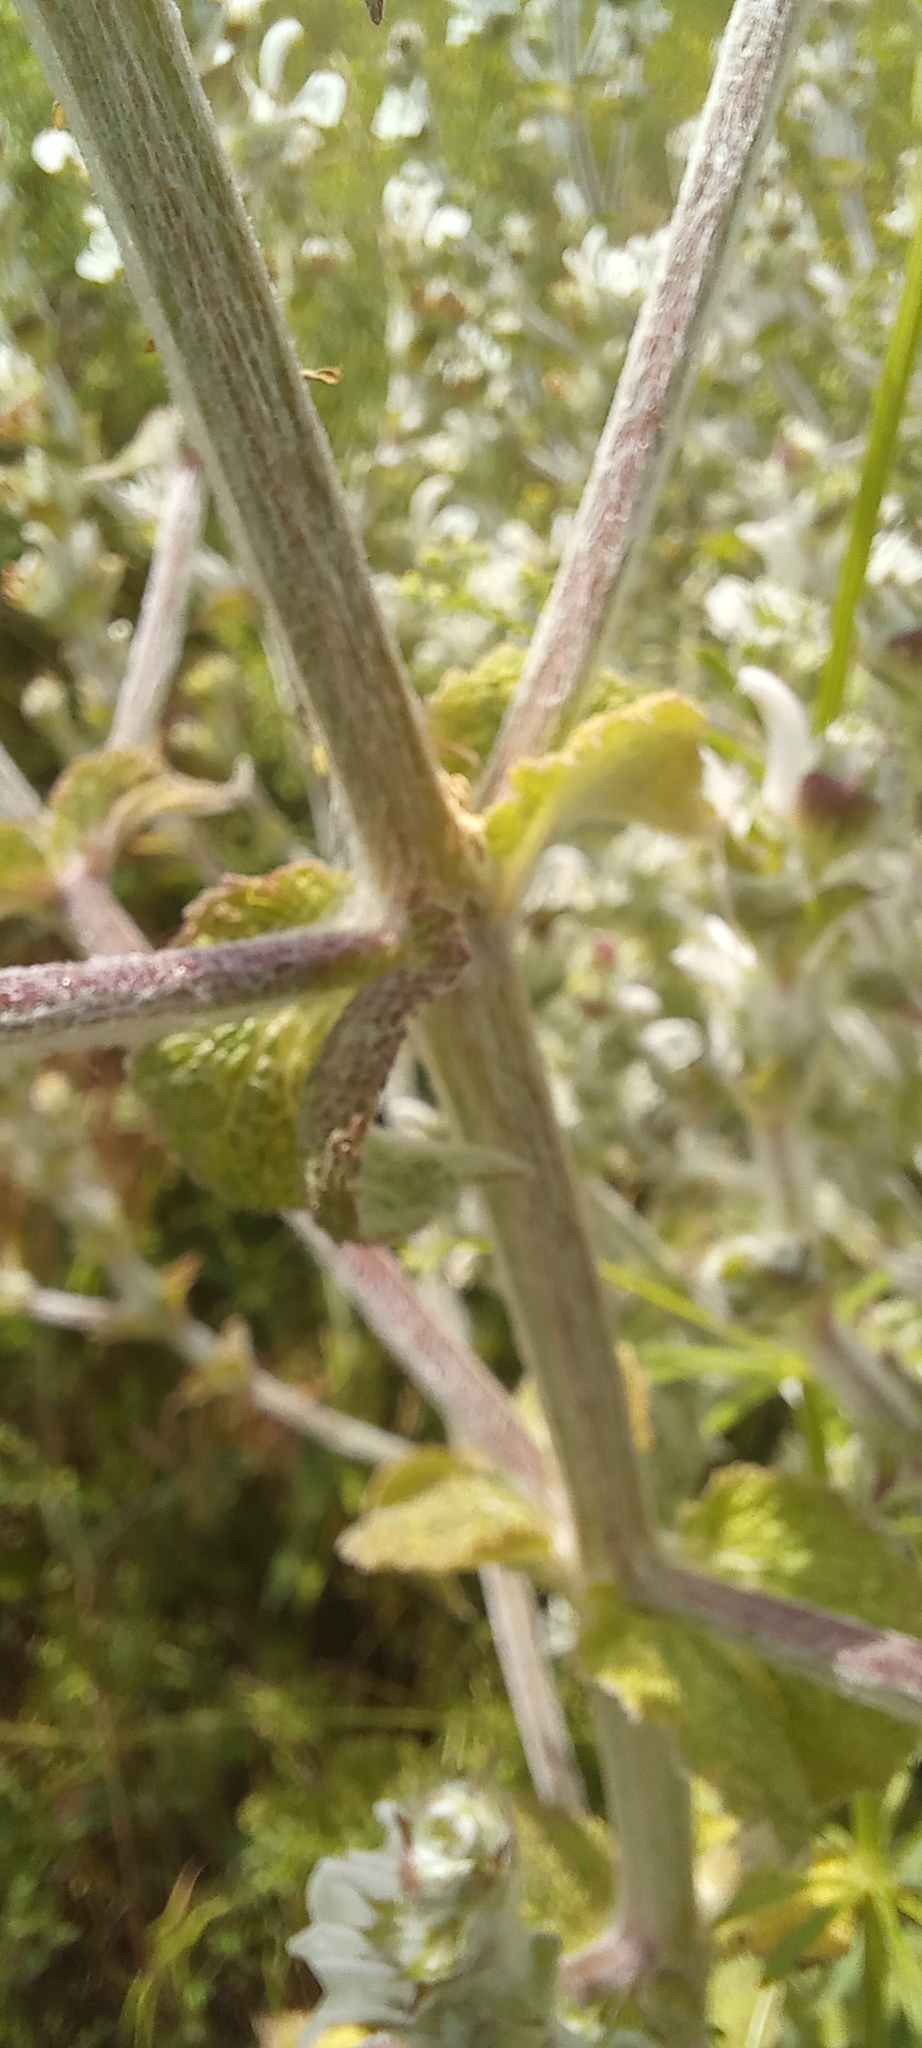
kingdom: Plantae
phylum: Tracheophyta
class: Magnoliopsida
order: Lamiales
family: Lamiaceae
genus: Salvia
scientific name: Salvia aethiopis
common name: Mediterranean sage
